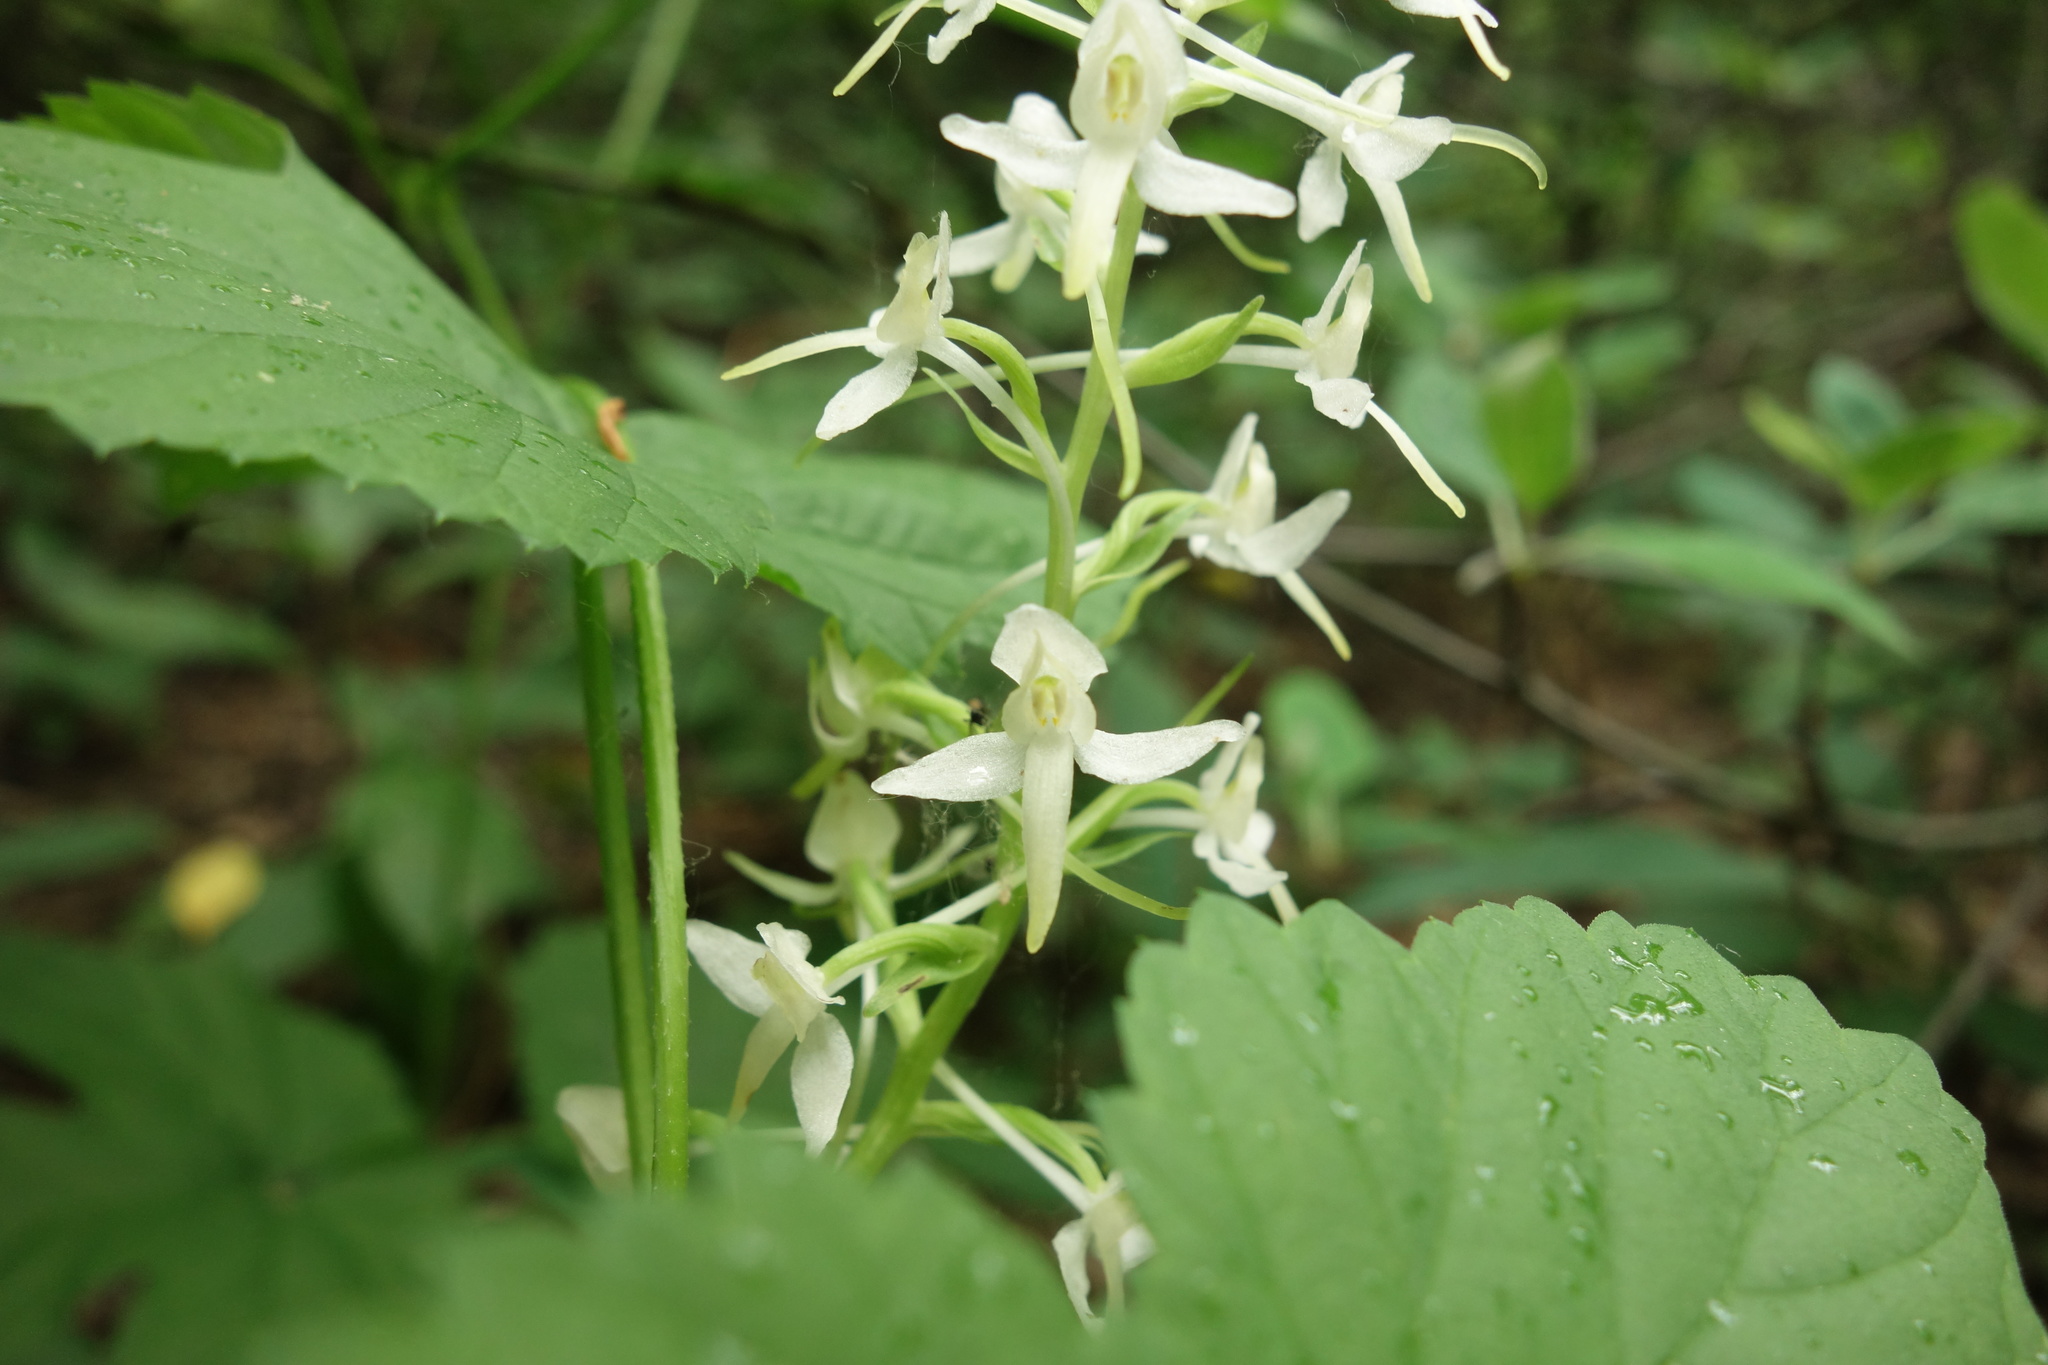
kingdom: Plantae
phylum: Tracheophyta
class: Liliopsida
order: Asparagales
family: Orchidaceae
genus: Platanthera
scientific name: Platanthera bifolia
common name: Lesser butterfly-orchid
